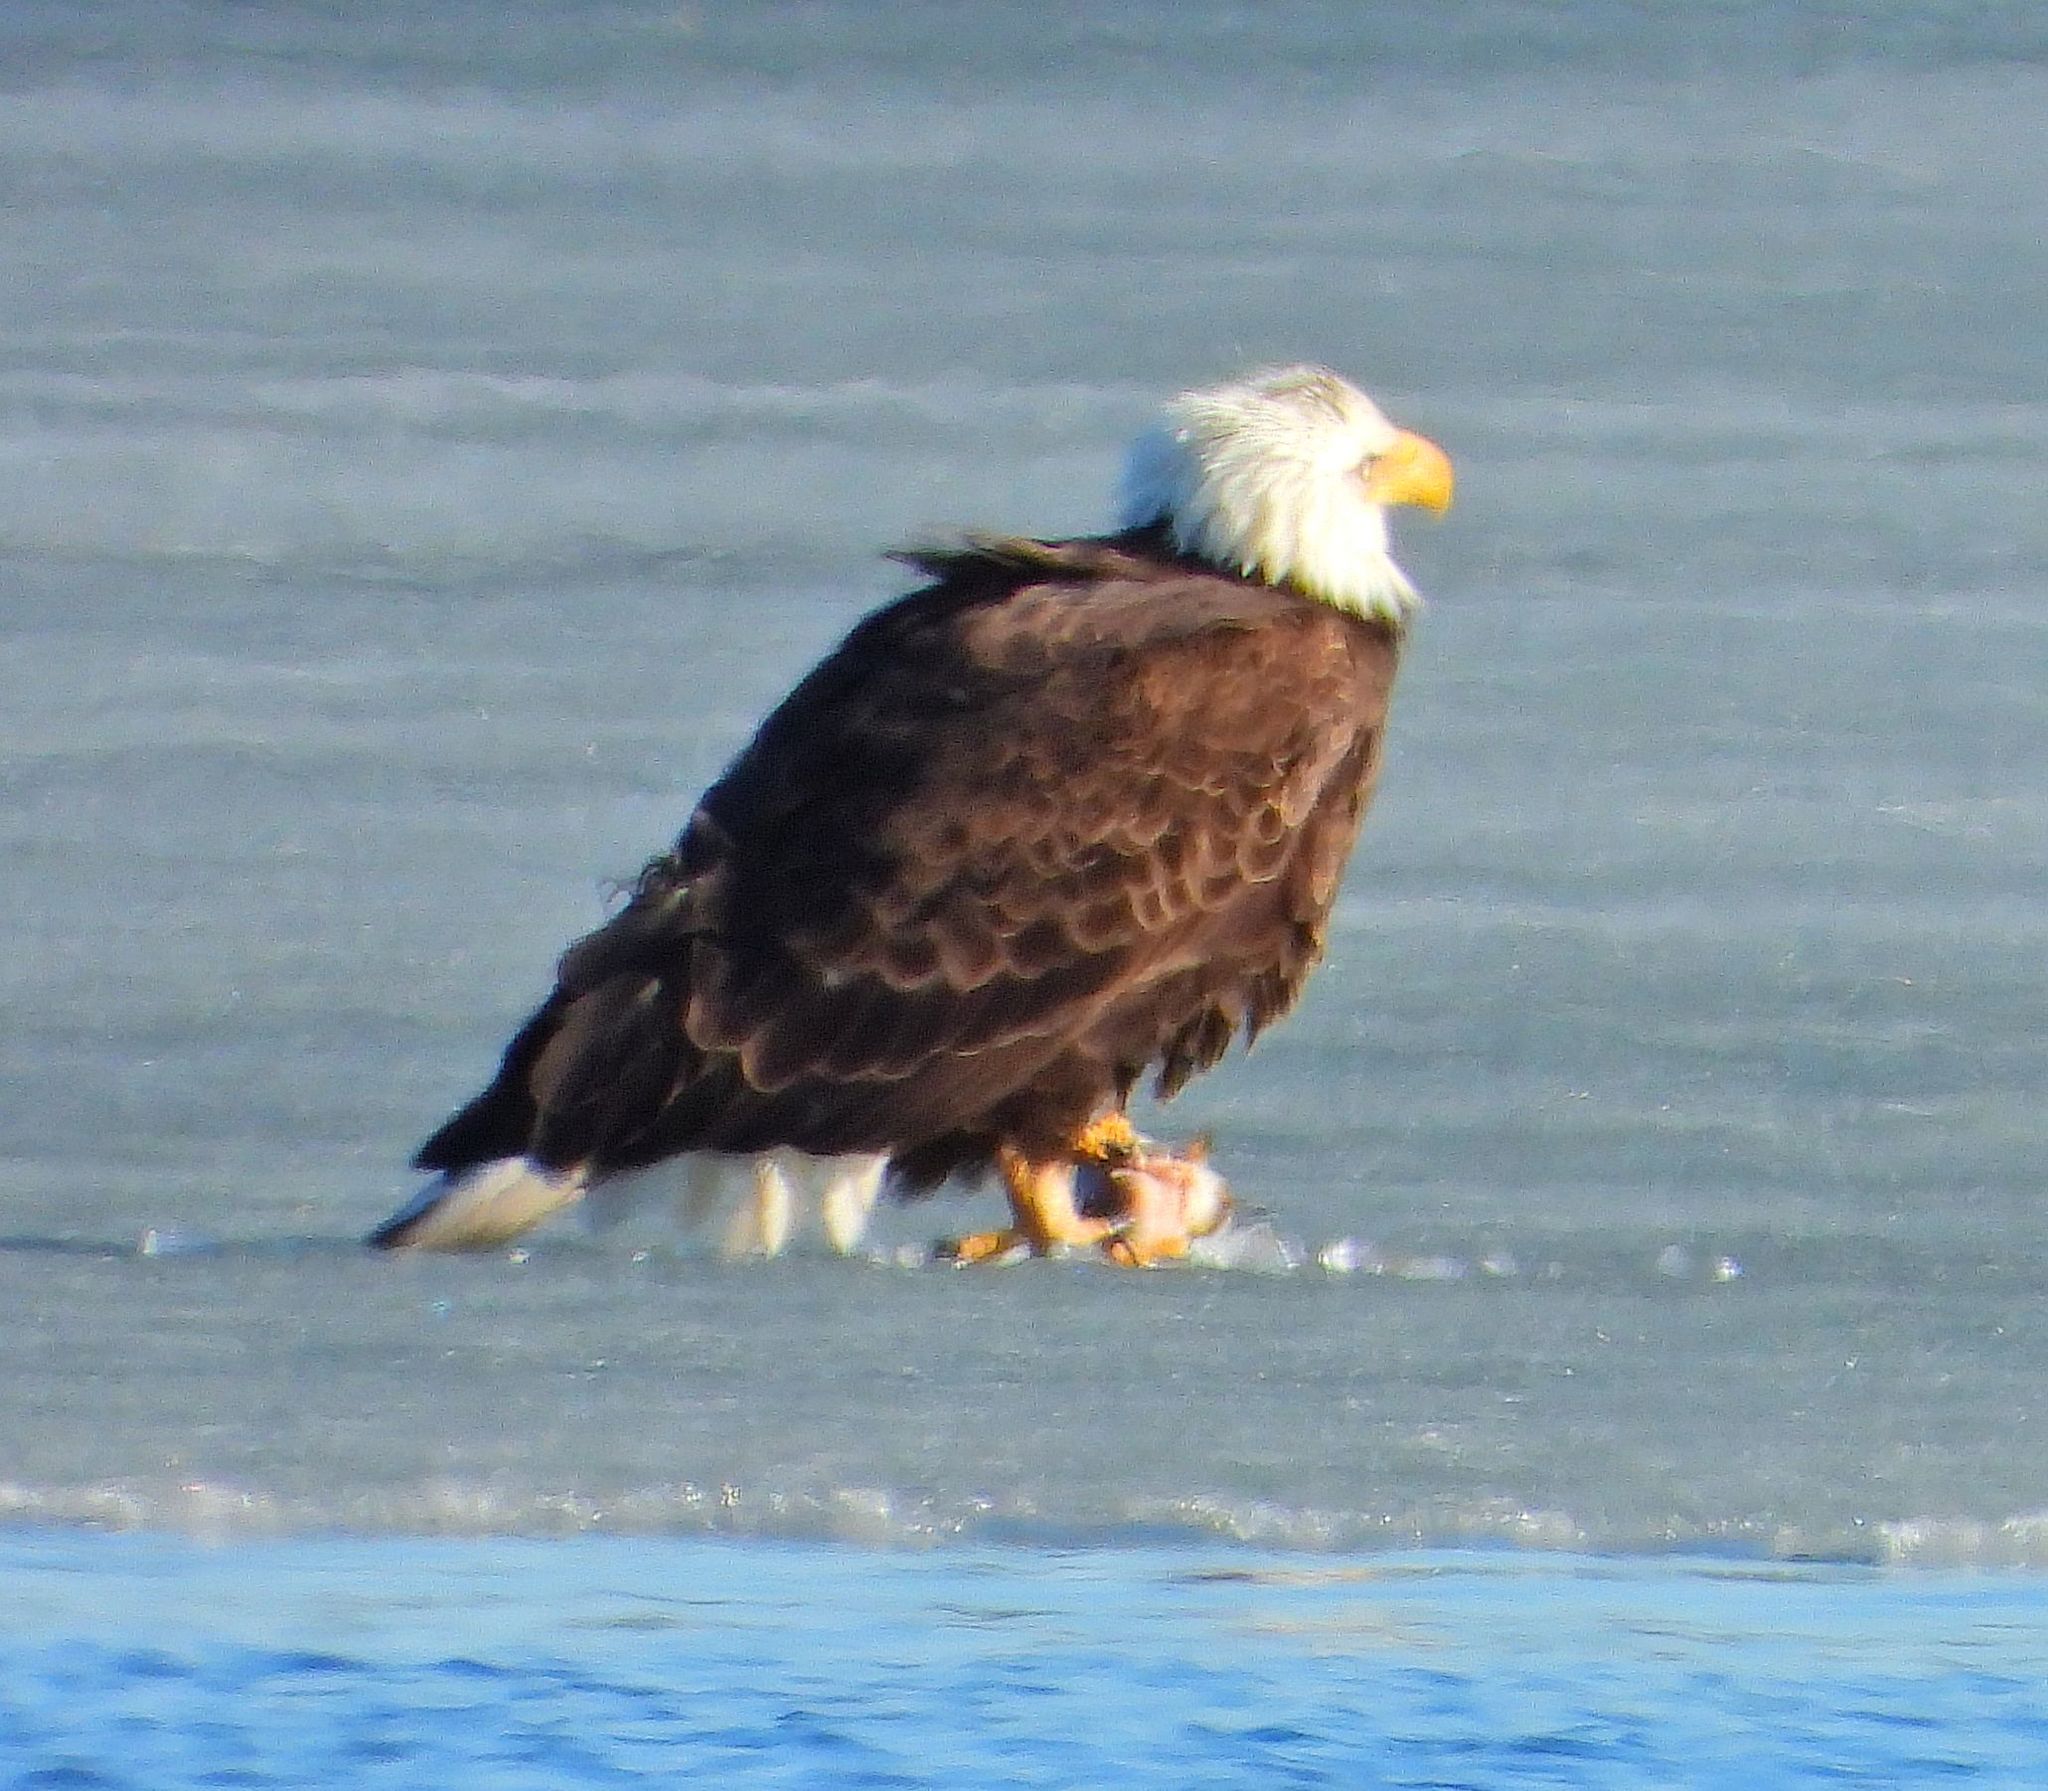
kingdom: Animalia
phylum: Chordata
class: Aves
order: Accipitriformes
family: Accipitridae
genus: Haliaeetus
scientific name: Haliaeetus leucocephalus
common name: Bald eagle
